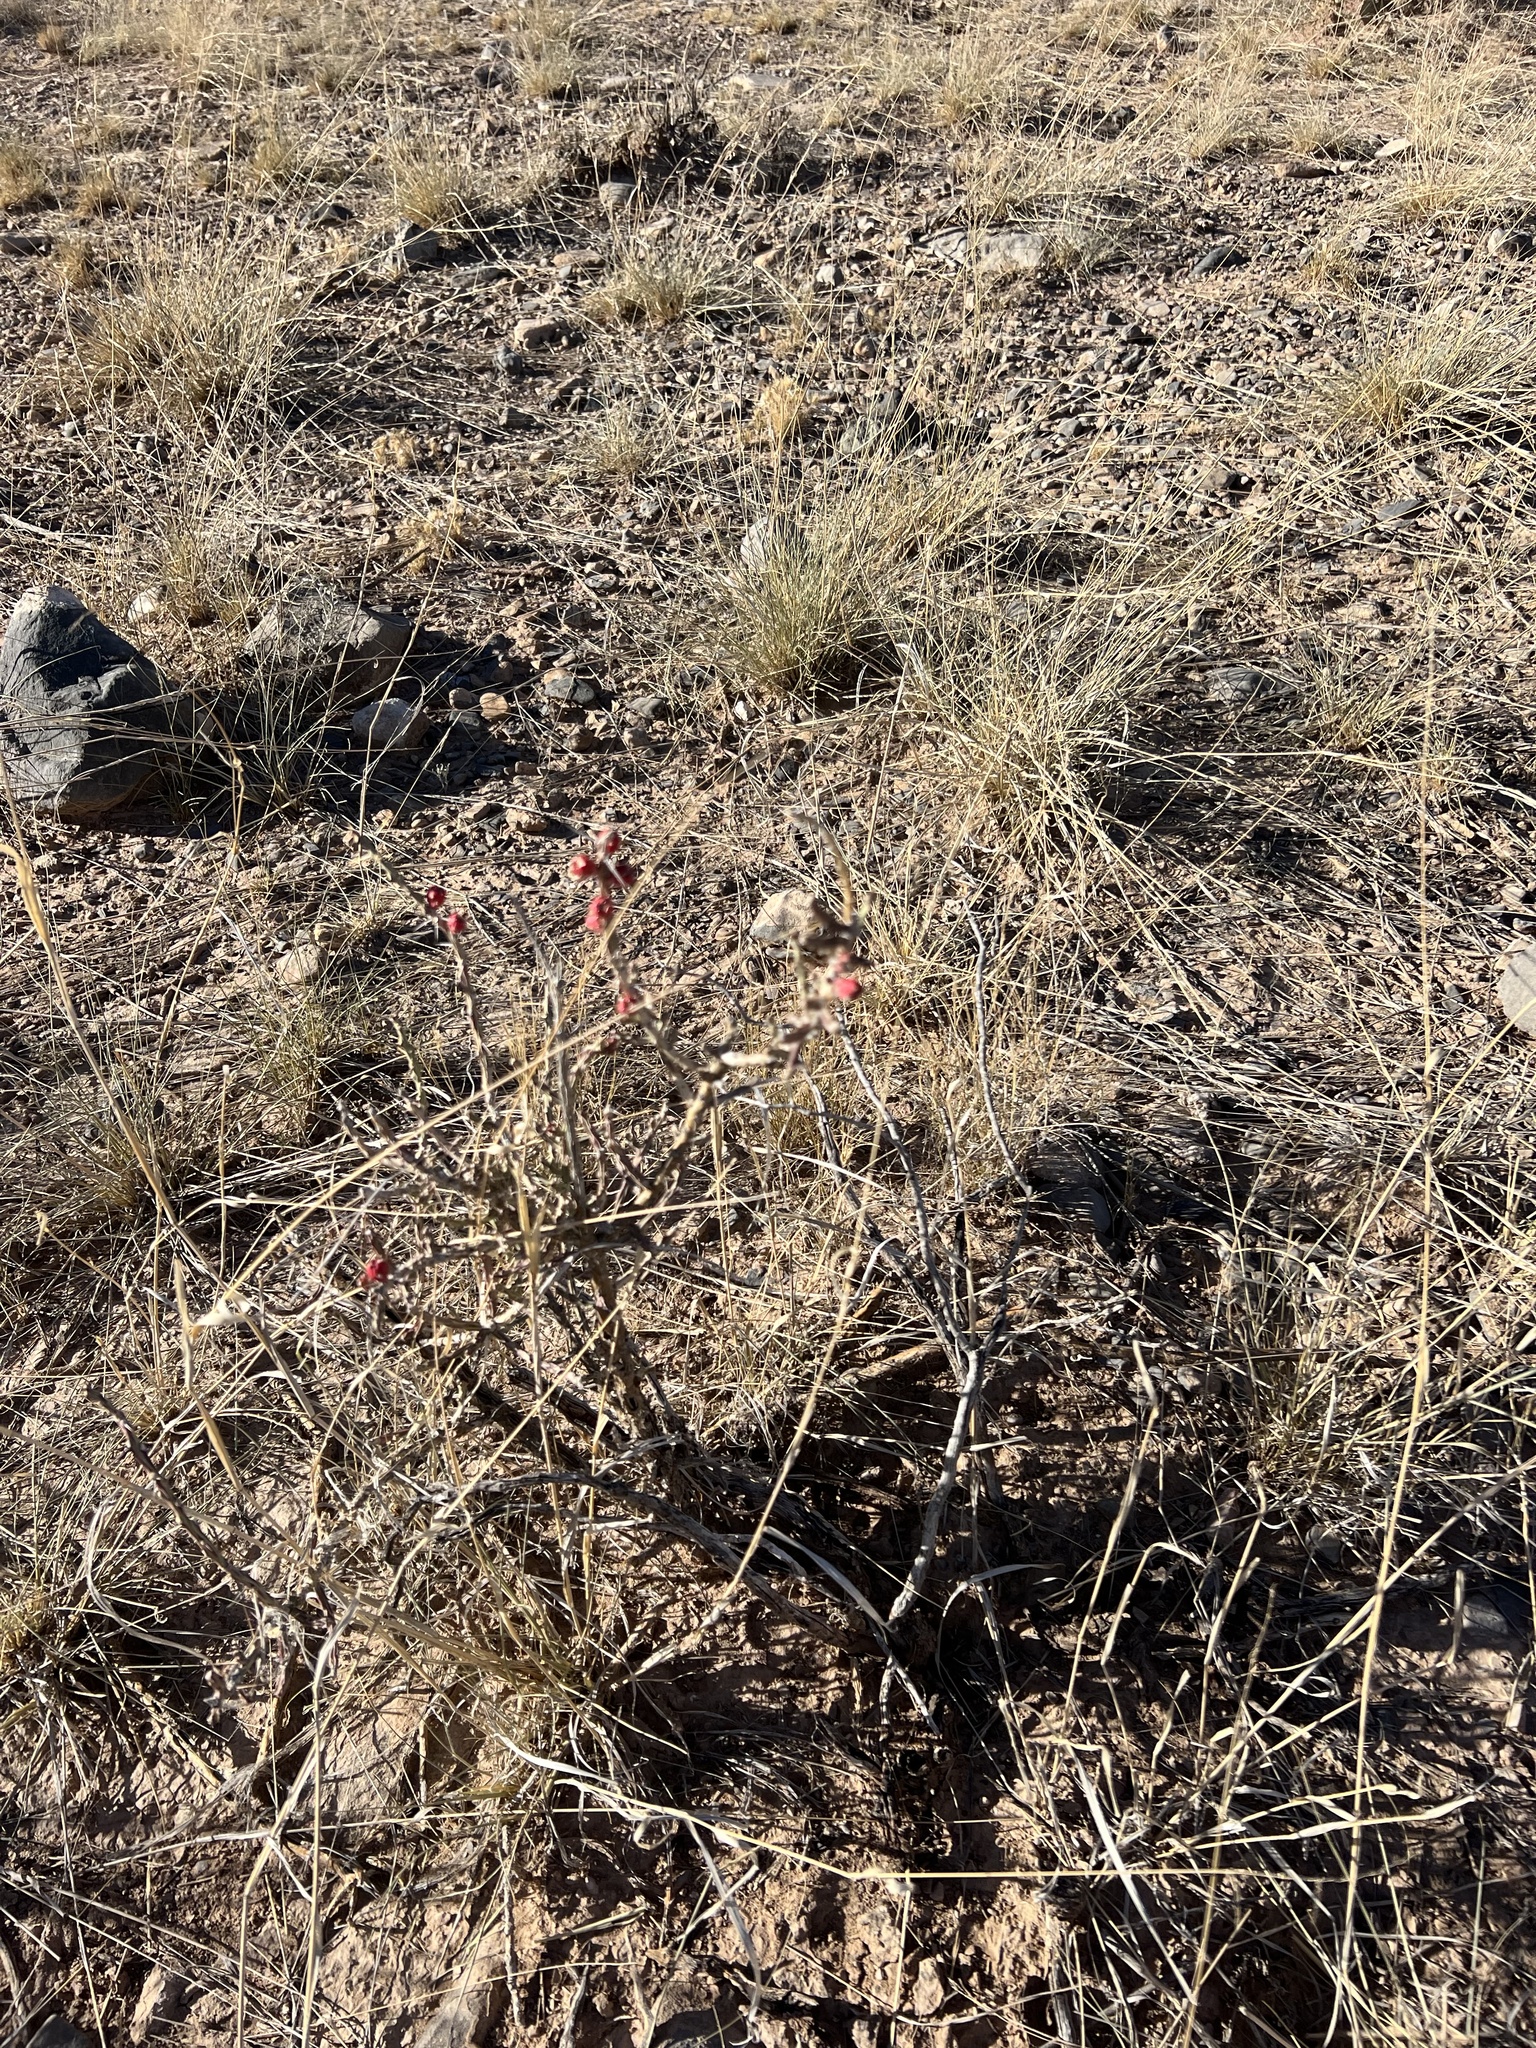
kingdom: Plantae
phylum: Tracheophyta
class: Magnoliopsida
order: Caryophyllales
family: Cactaceae
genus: Cylindropuntia
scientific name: Cylindropuntia leptocaulis
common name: Christmas cactus
